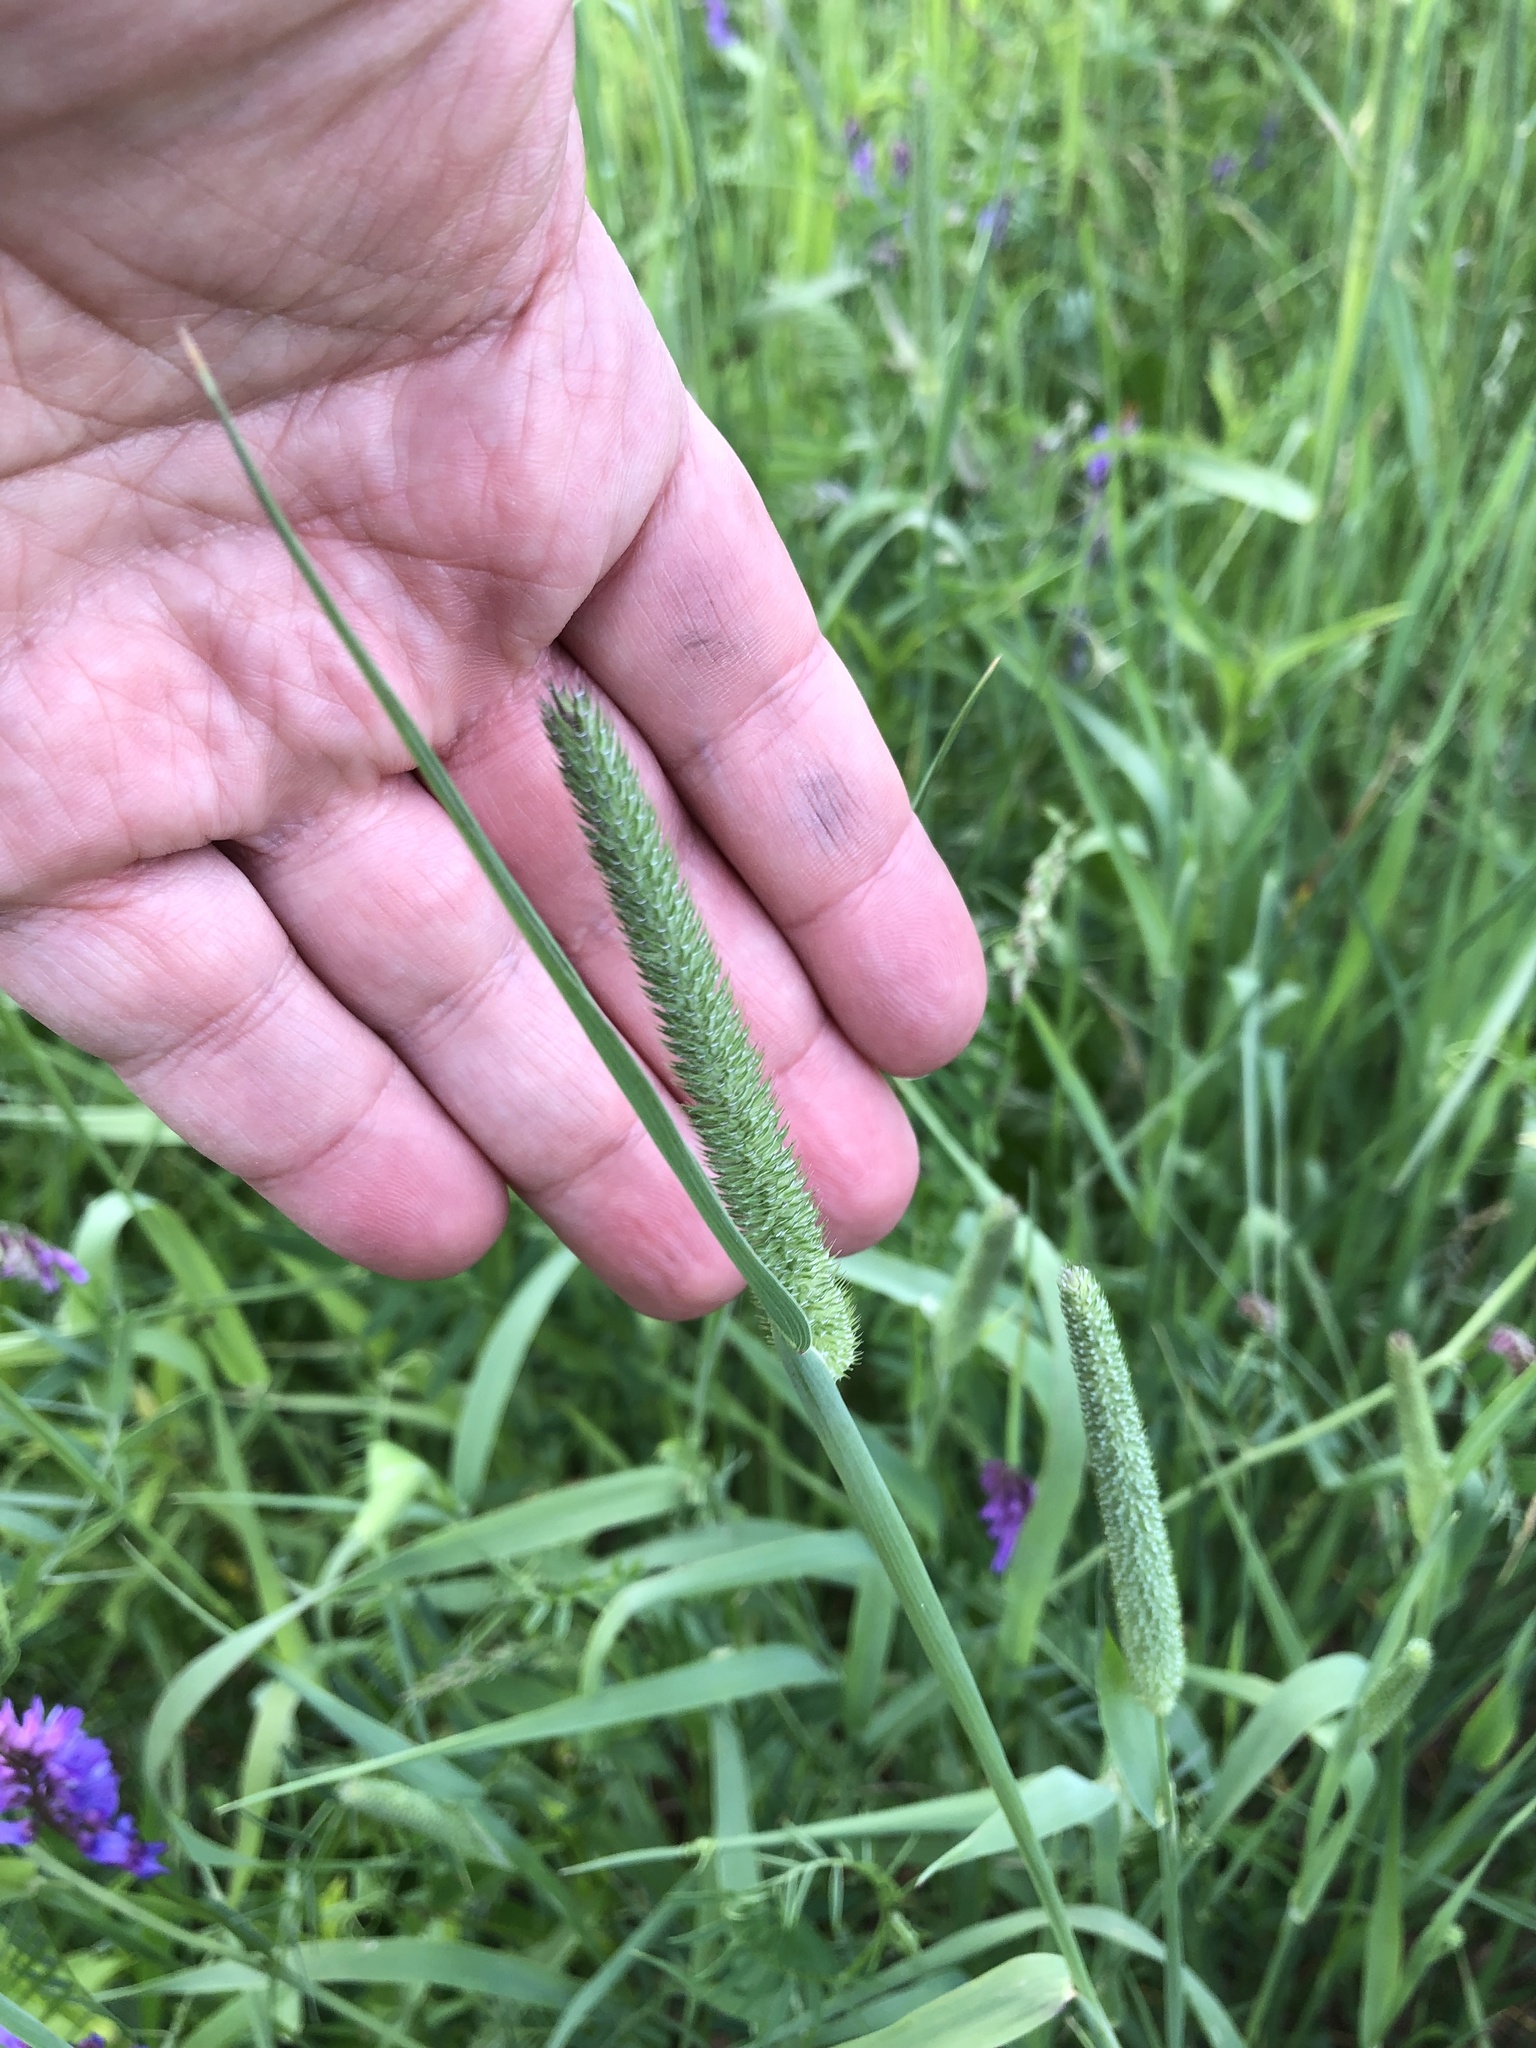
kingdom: Plantae
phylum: Tracheophyta
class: Liliopsida
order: Poales
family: Poaceae
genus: Phleum
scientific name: Phleum pratense
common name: Timothy grass
